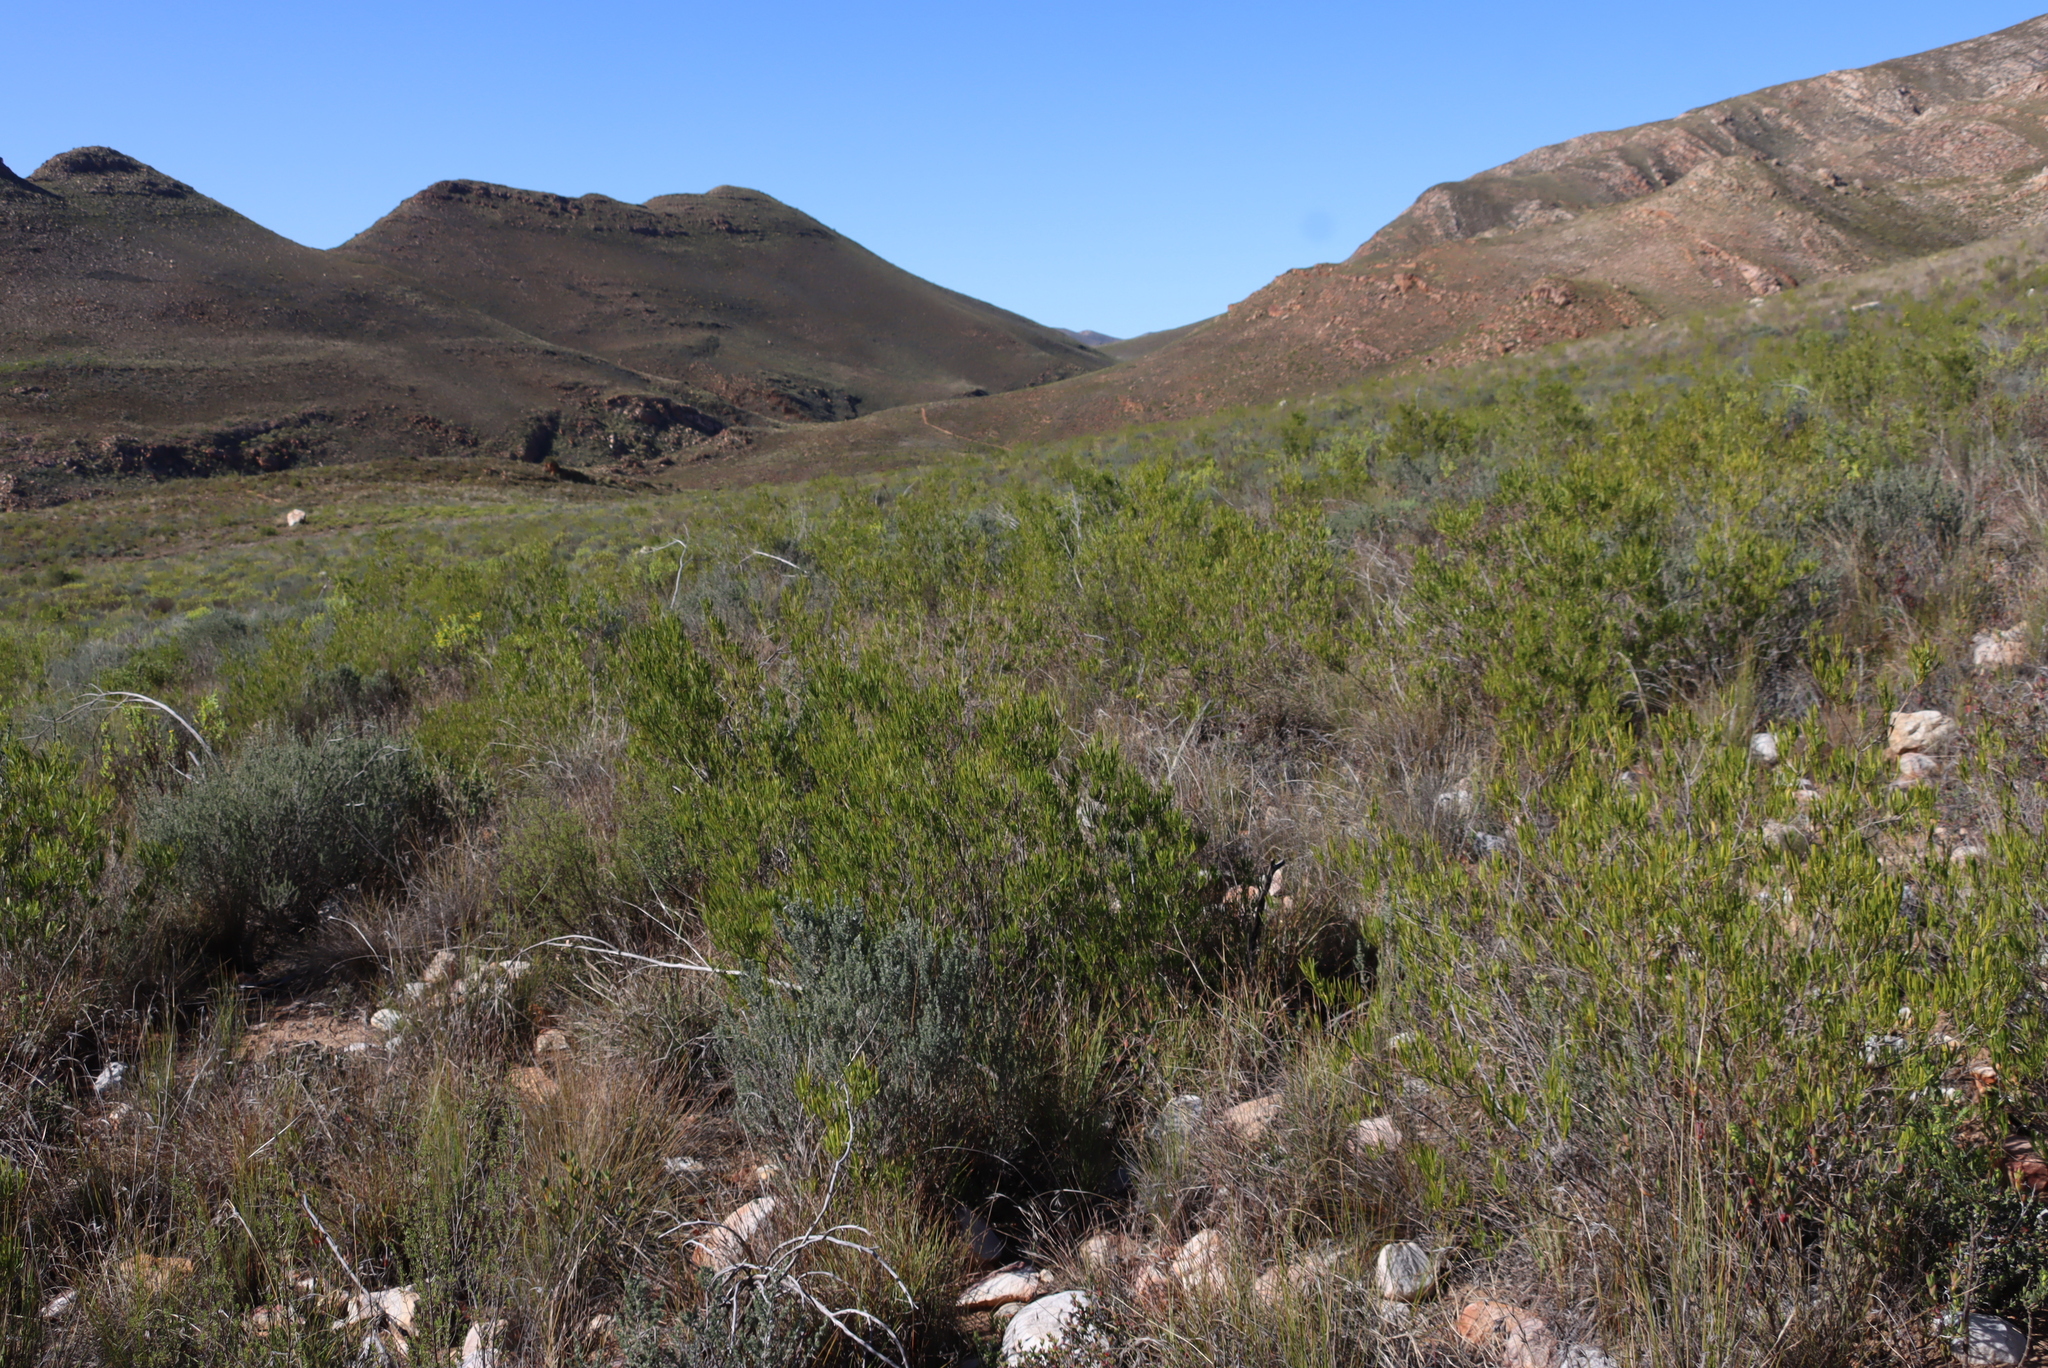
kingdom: Plantae
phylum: Tracheophyta
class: Magnoliopsida
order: Sapindales
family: Sapindaceae
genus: Dodonaea
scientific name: Dodonaea viscosa
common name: Hopbush
